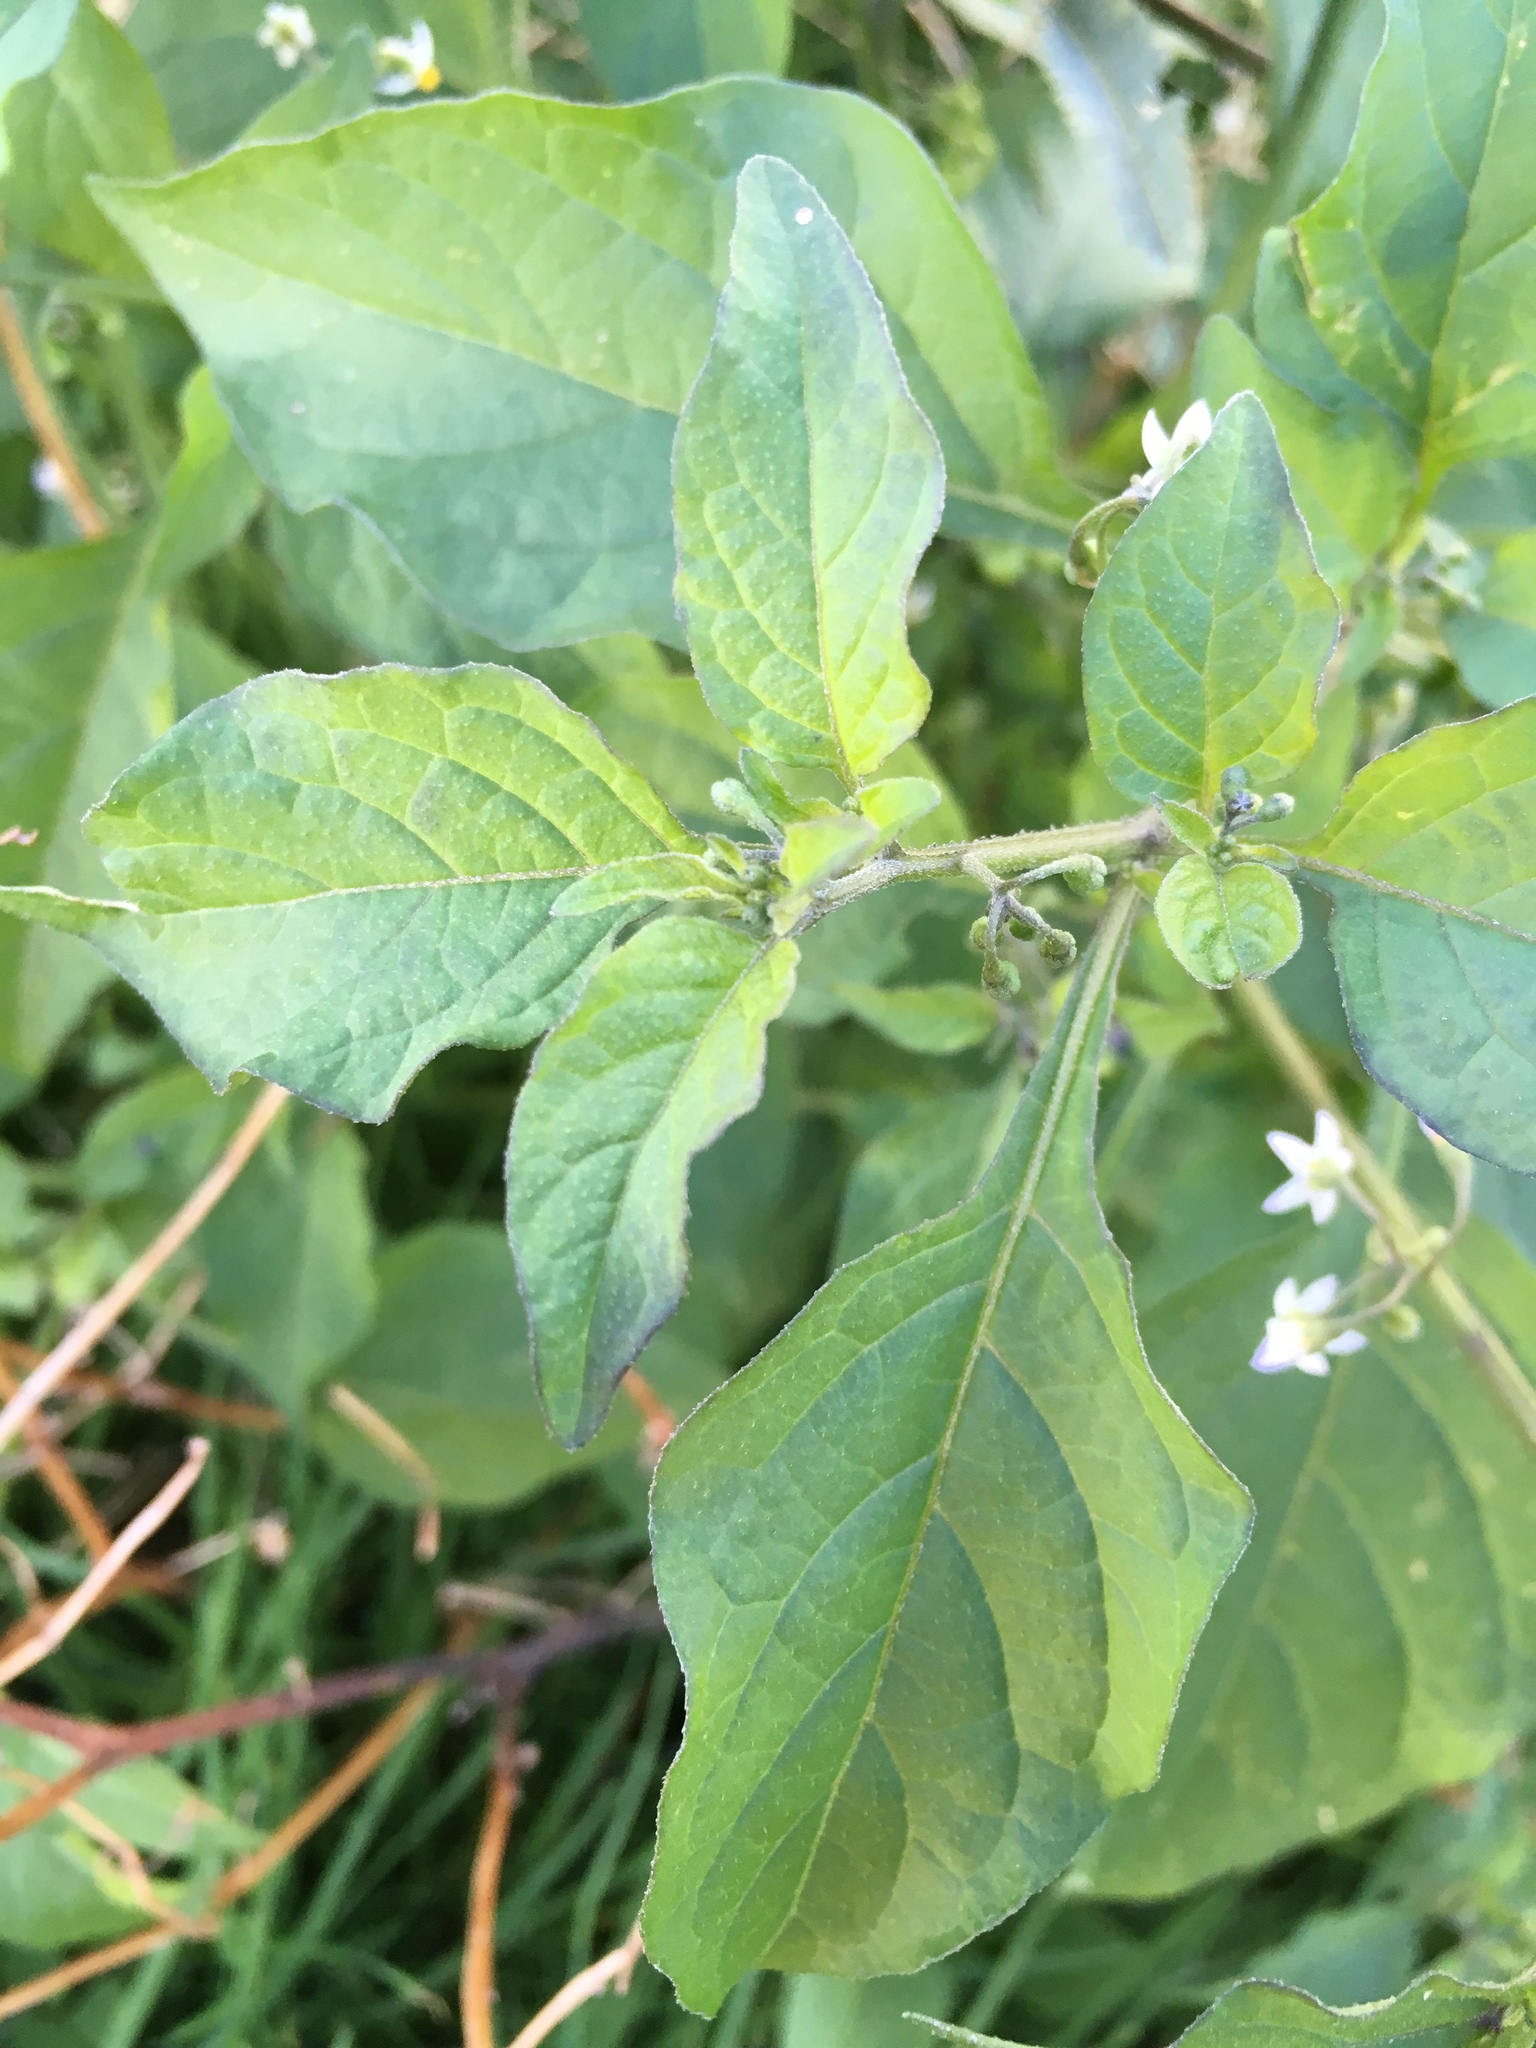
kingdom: Plantae
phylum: Tracheophyta
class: Magnoliopsida
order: Solanales
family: Solanaceae
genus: Solanum
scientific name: Solanum americanum
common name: American black nightshade
